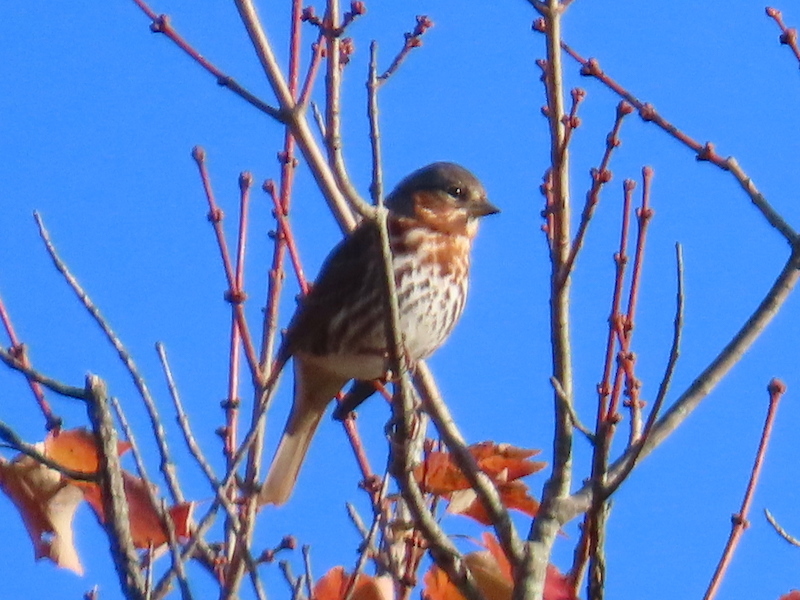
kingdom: Animalia
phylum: Chordata
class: Aves
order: Passeriformes
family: Passerellidae
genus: Passerella
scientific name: Passerella iliaca
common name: Fox sparrow
